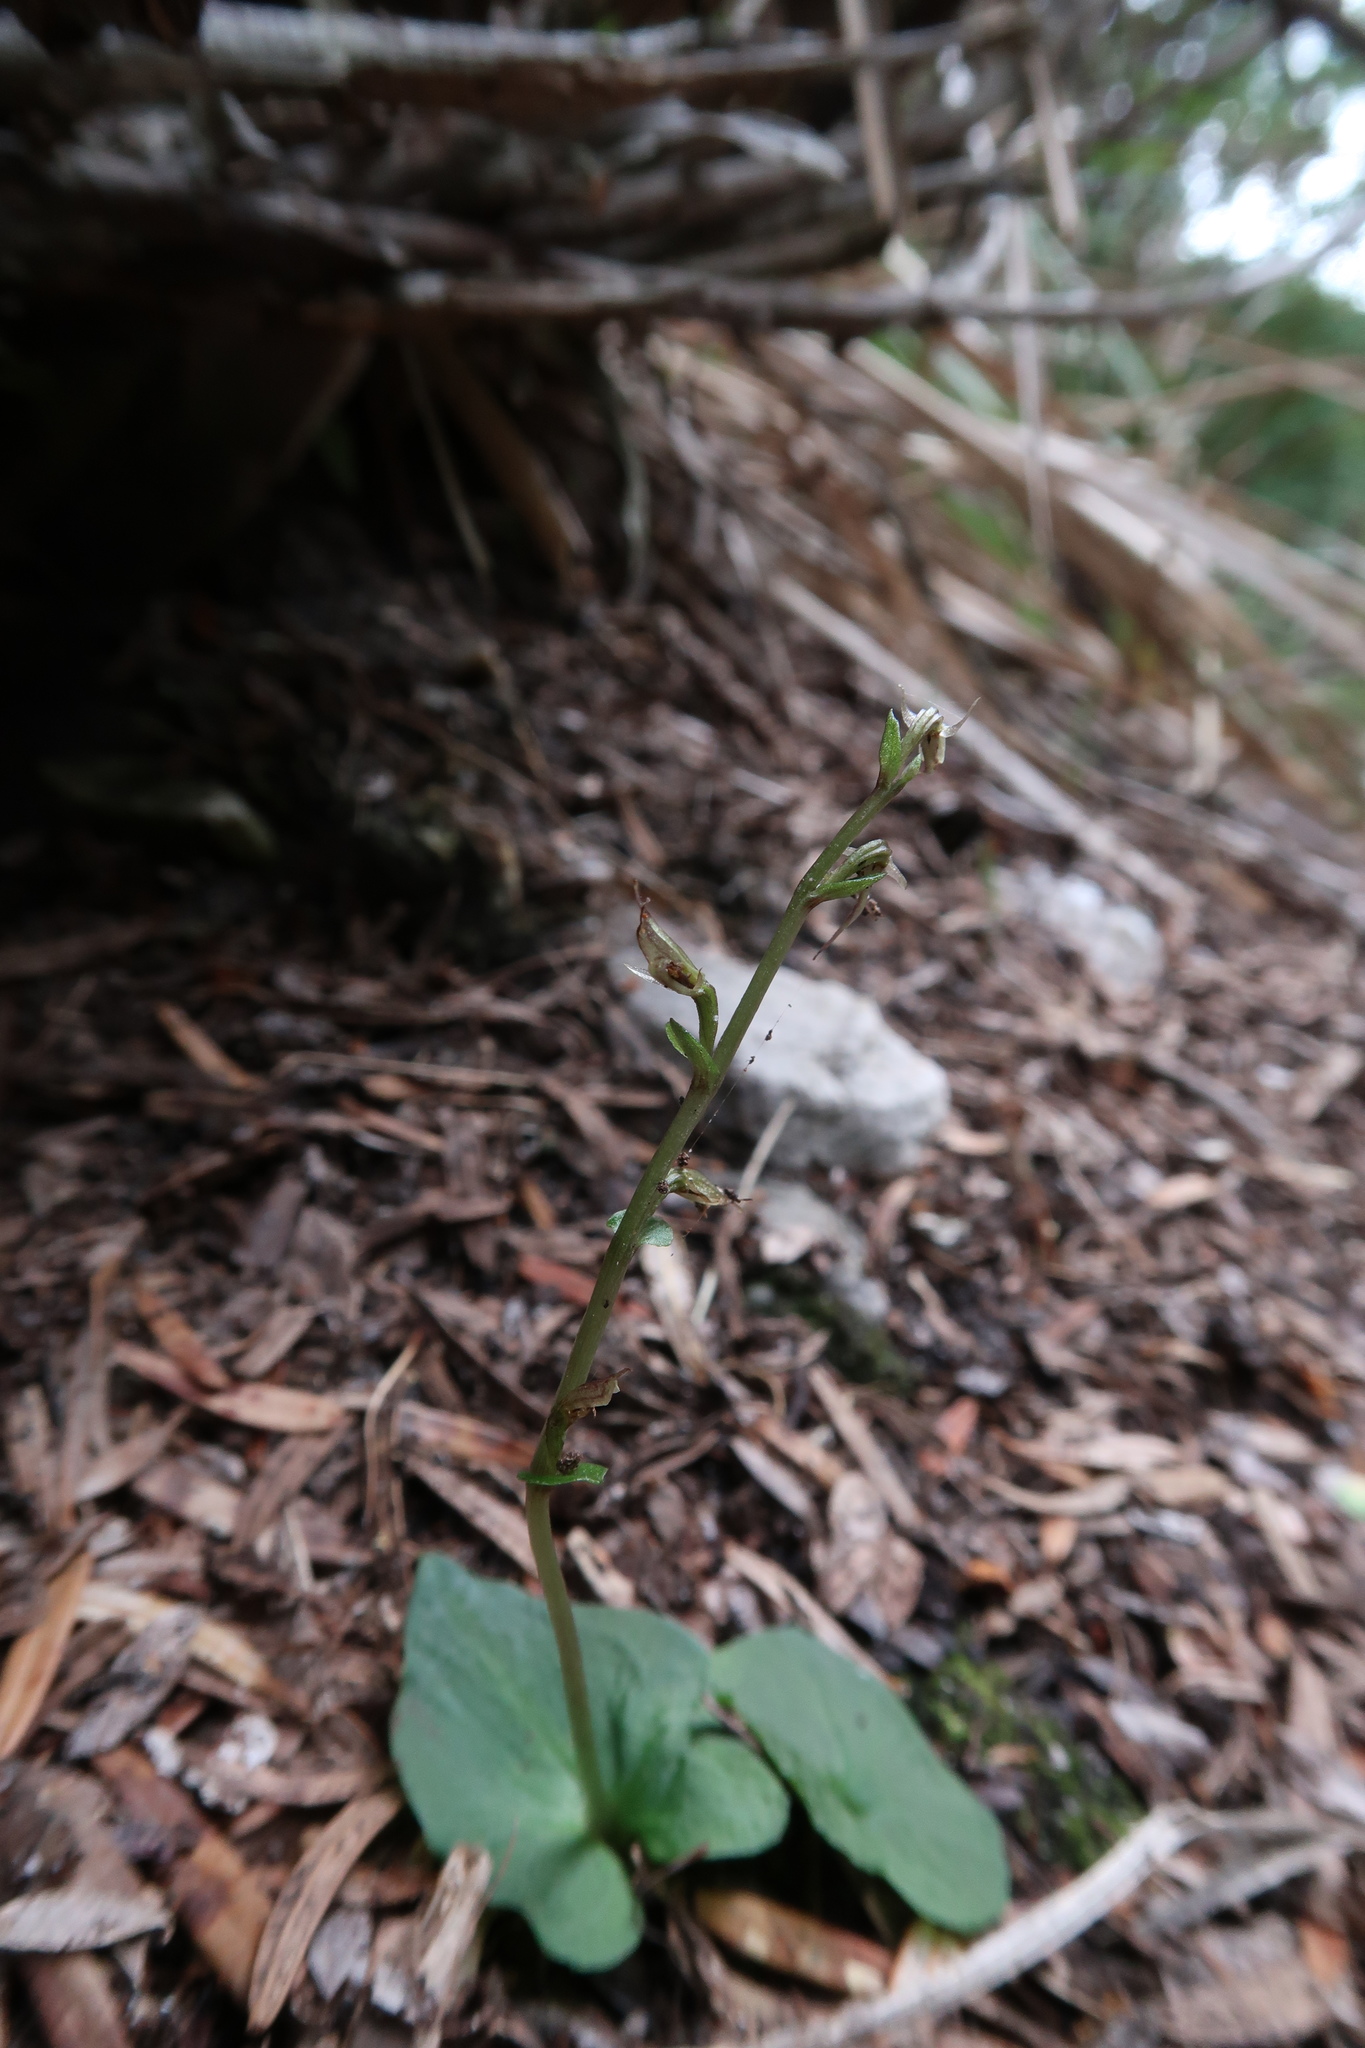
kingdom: Plantae
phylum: Tracheophyta
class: Liliopsida
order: Asparagales
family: Orchidaceae
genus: Acianthus
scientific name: Acianthus pusillus
